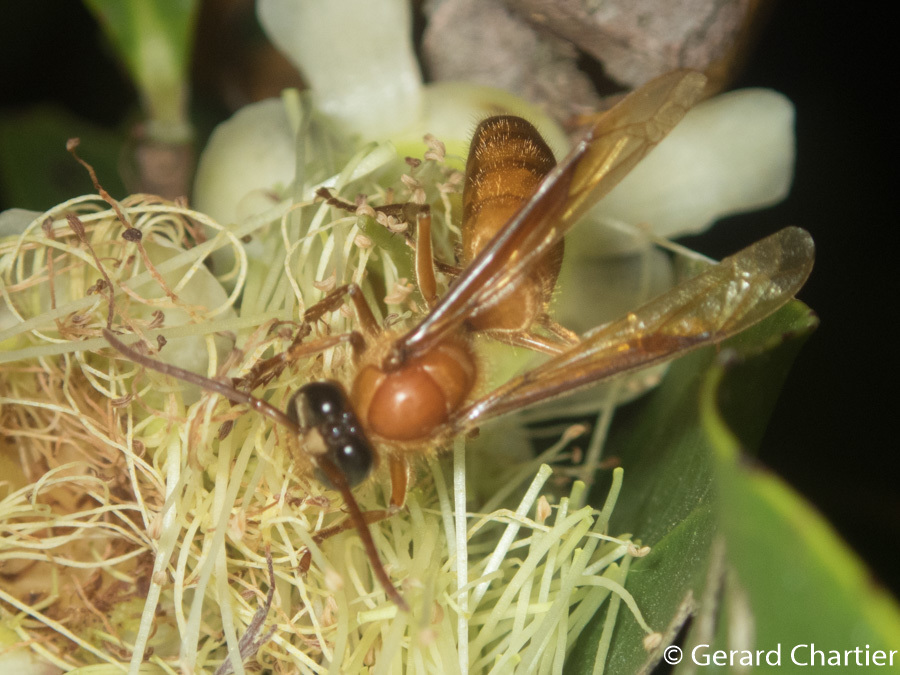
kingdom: Animalia
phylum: Arthropoda
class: Insecta
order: Hymenoptera
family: Vespidae
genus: Provespa
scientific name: Provespa barthelemyi
